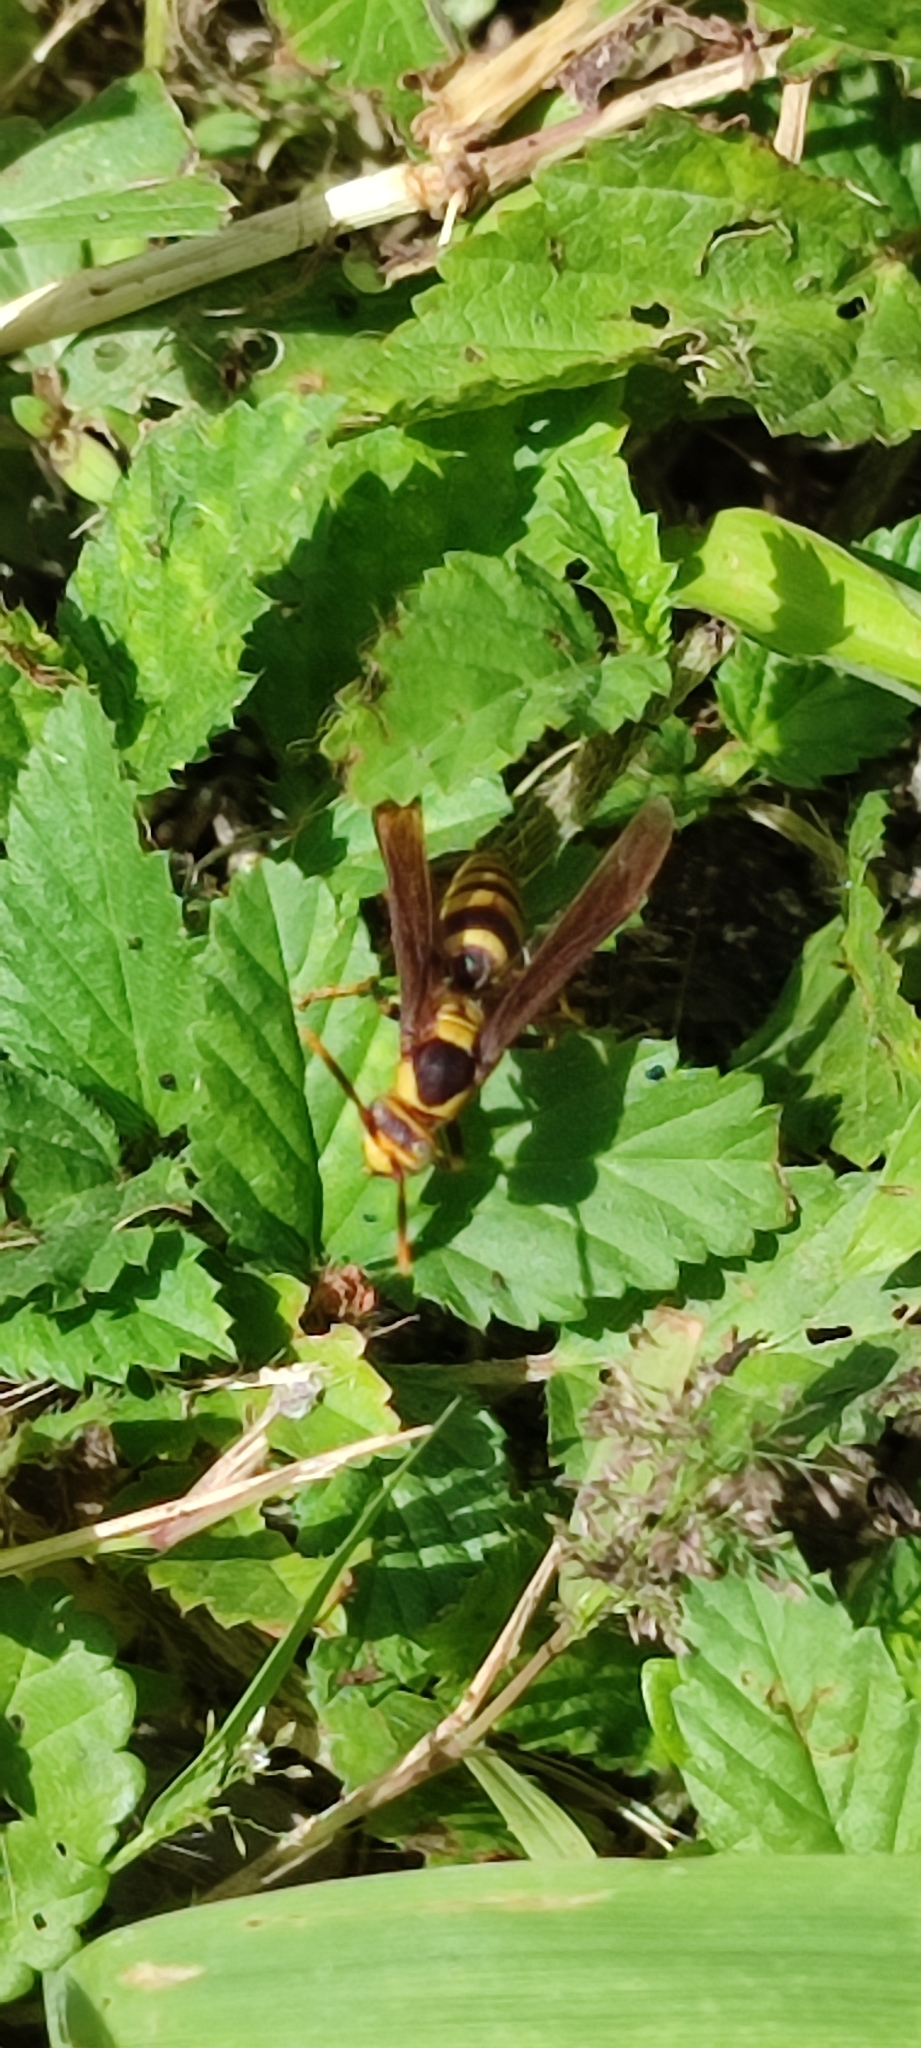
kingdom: Animalia
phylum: Arthropoda
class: Insecta
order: Hymenoptera
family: Eumenidae
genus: Polistes
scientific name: Polistes major
